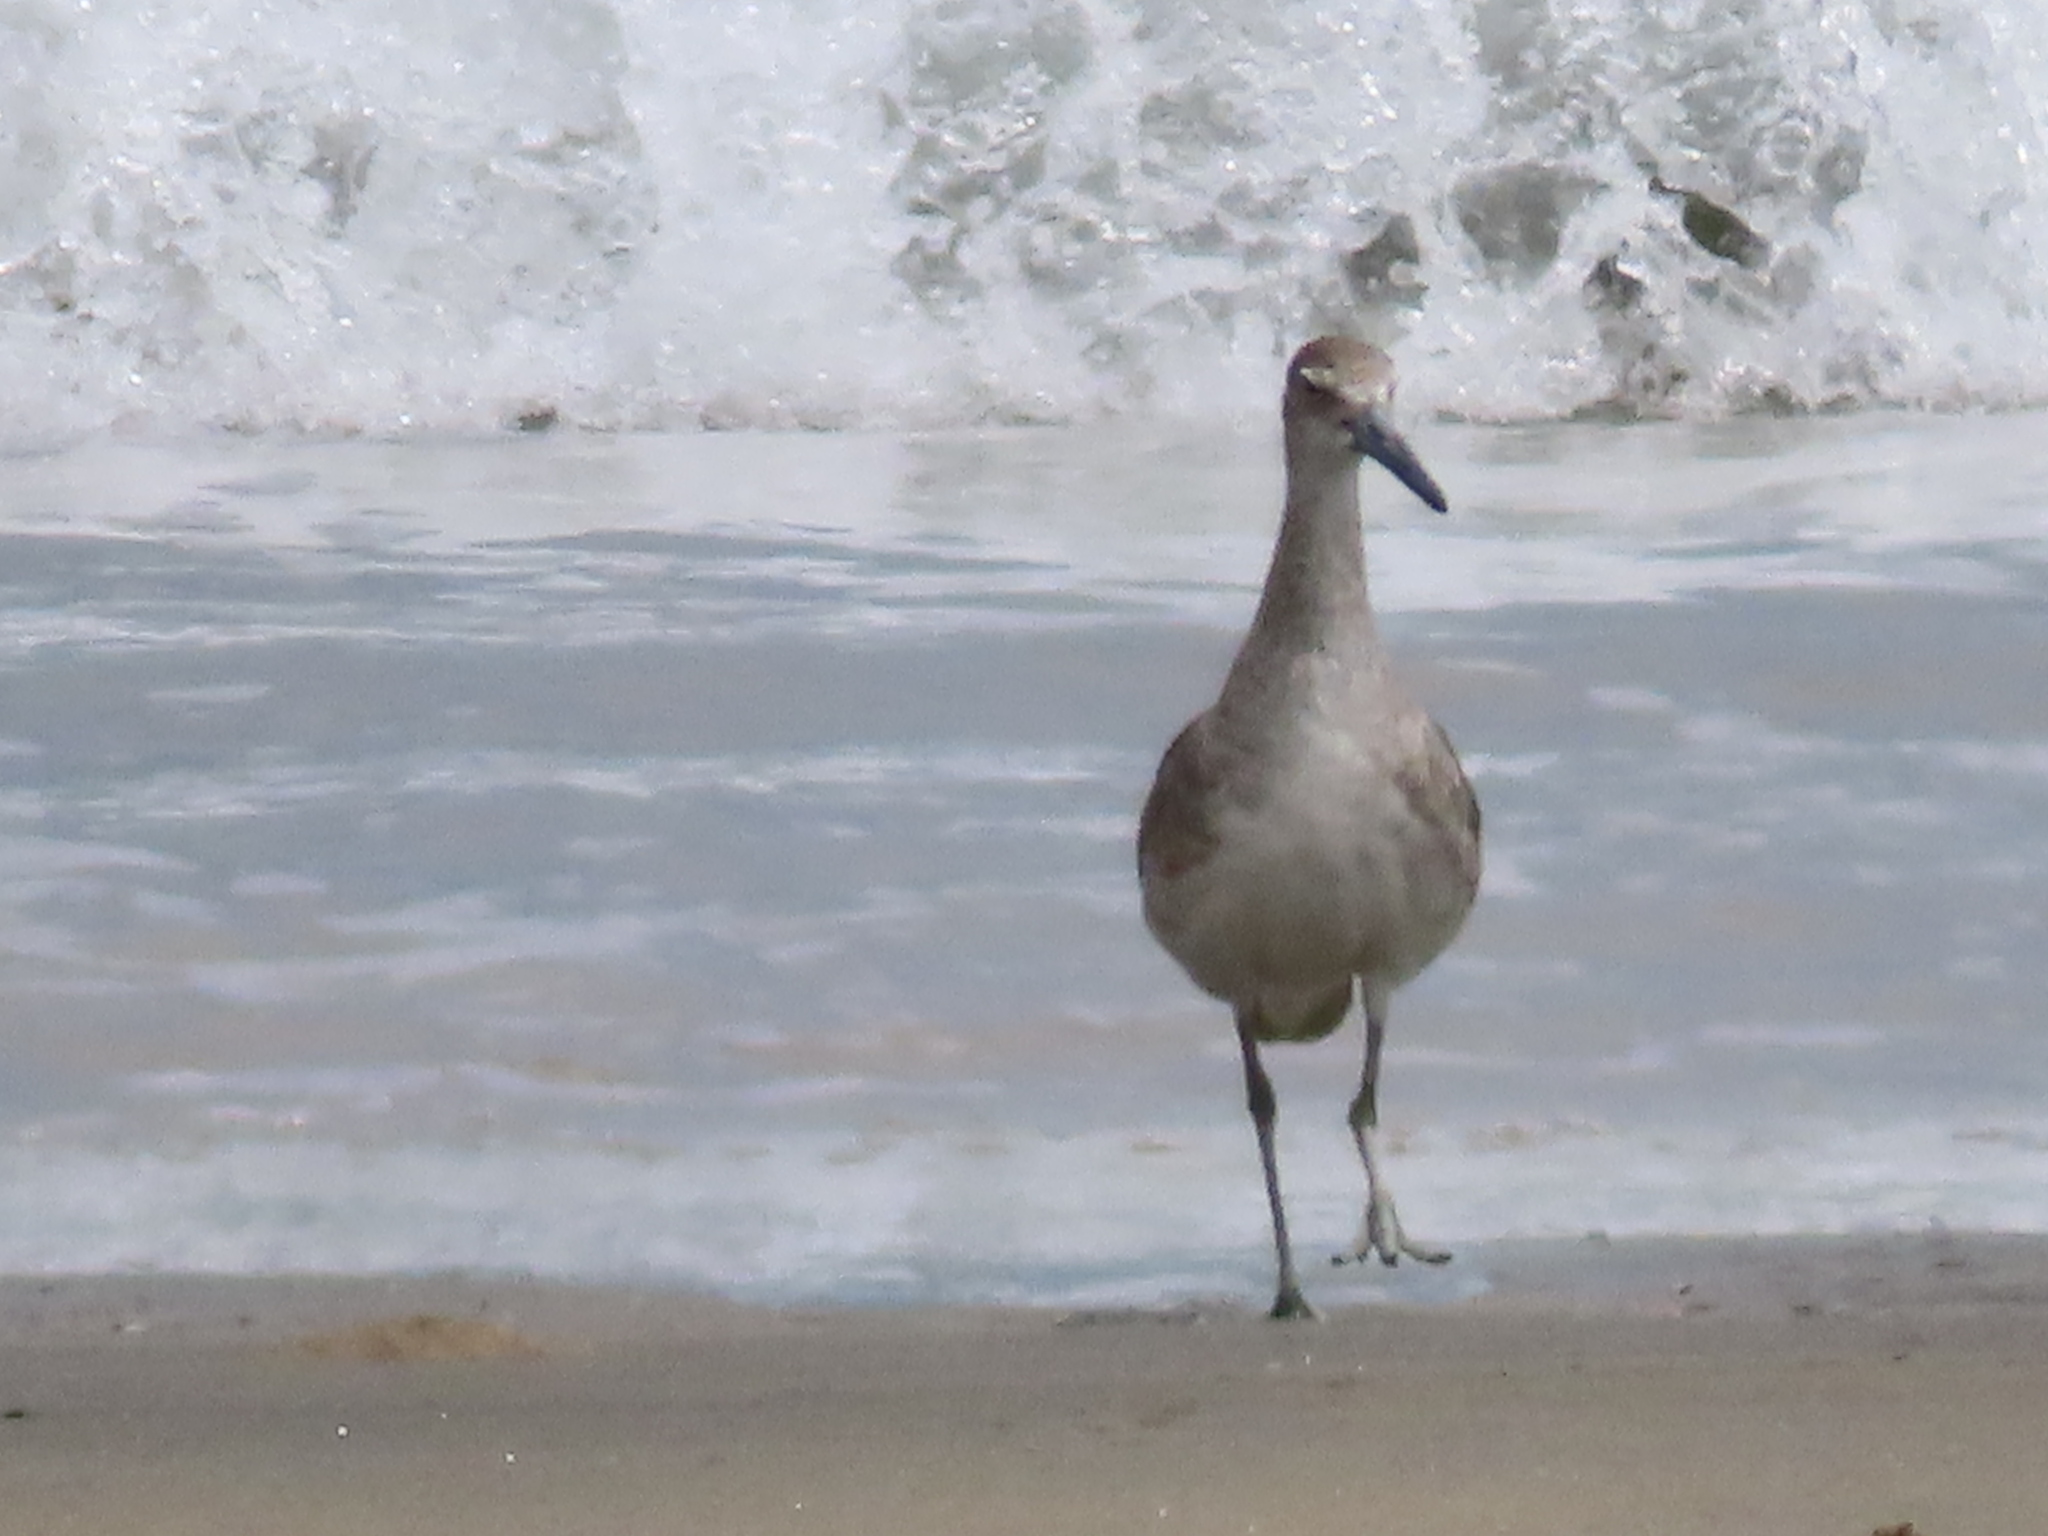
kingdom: Animalia
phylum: Chordata
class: Aves
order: Charadriiformes
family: Scolopacidae
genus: Tringa
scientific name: Tringa semipalmata
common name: Willet
